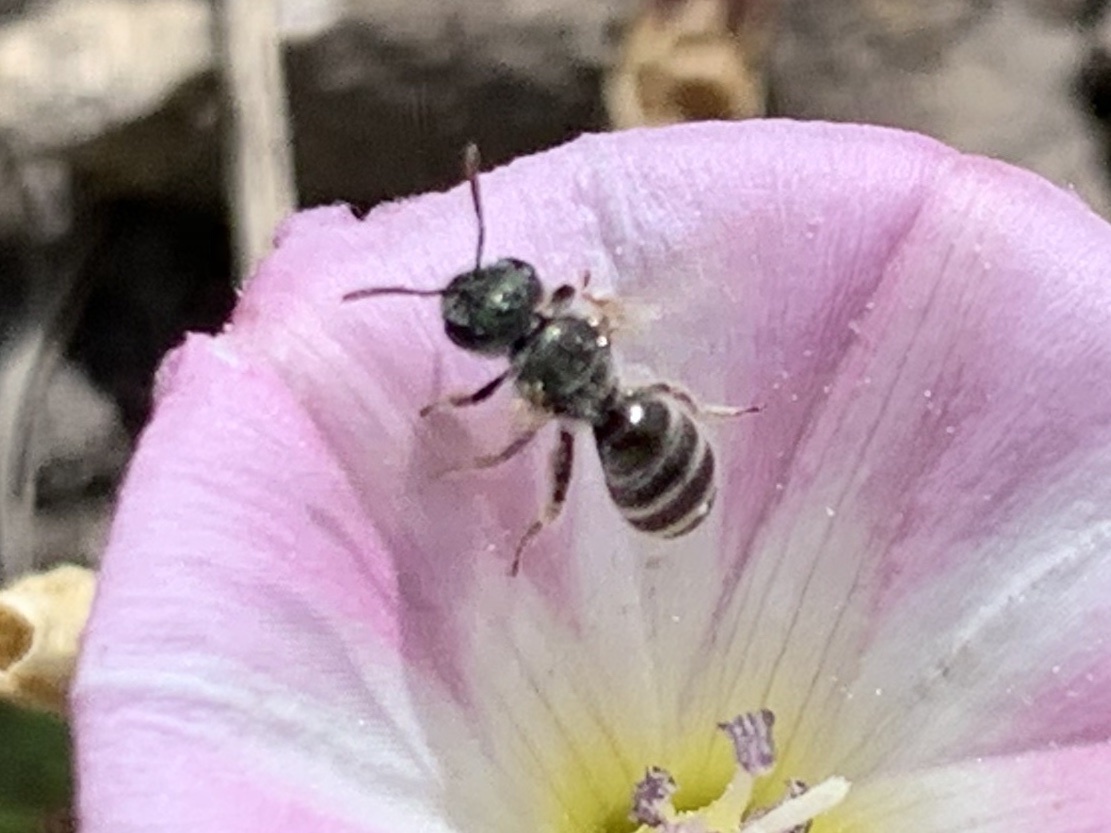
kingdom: Animalia
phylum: Arthropoda
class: Insecta
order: Hymenoptera
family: Halictidae
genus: Halictus
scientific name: Halictus tripartitus
